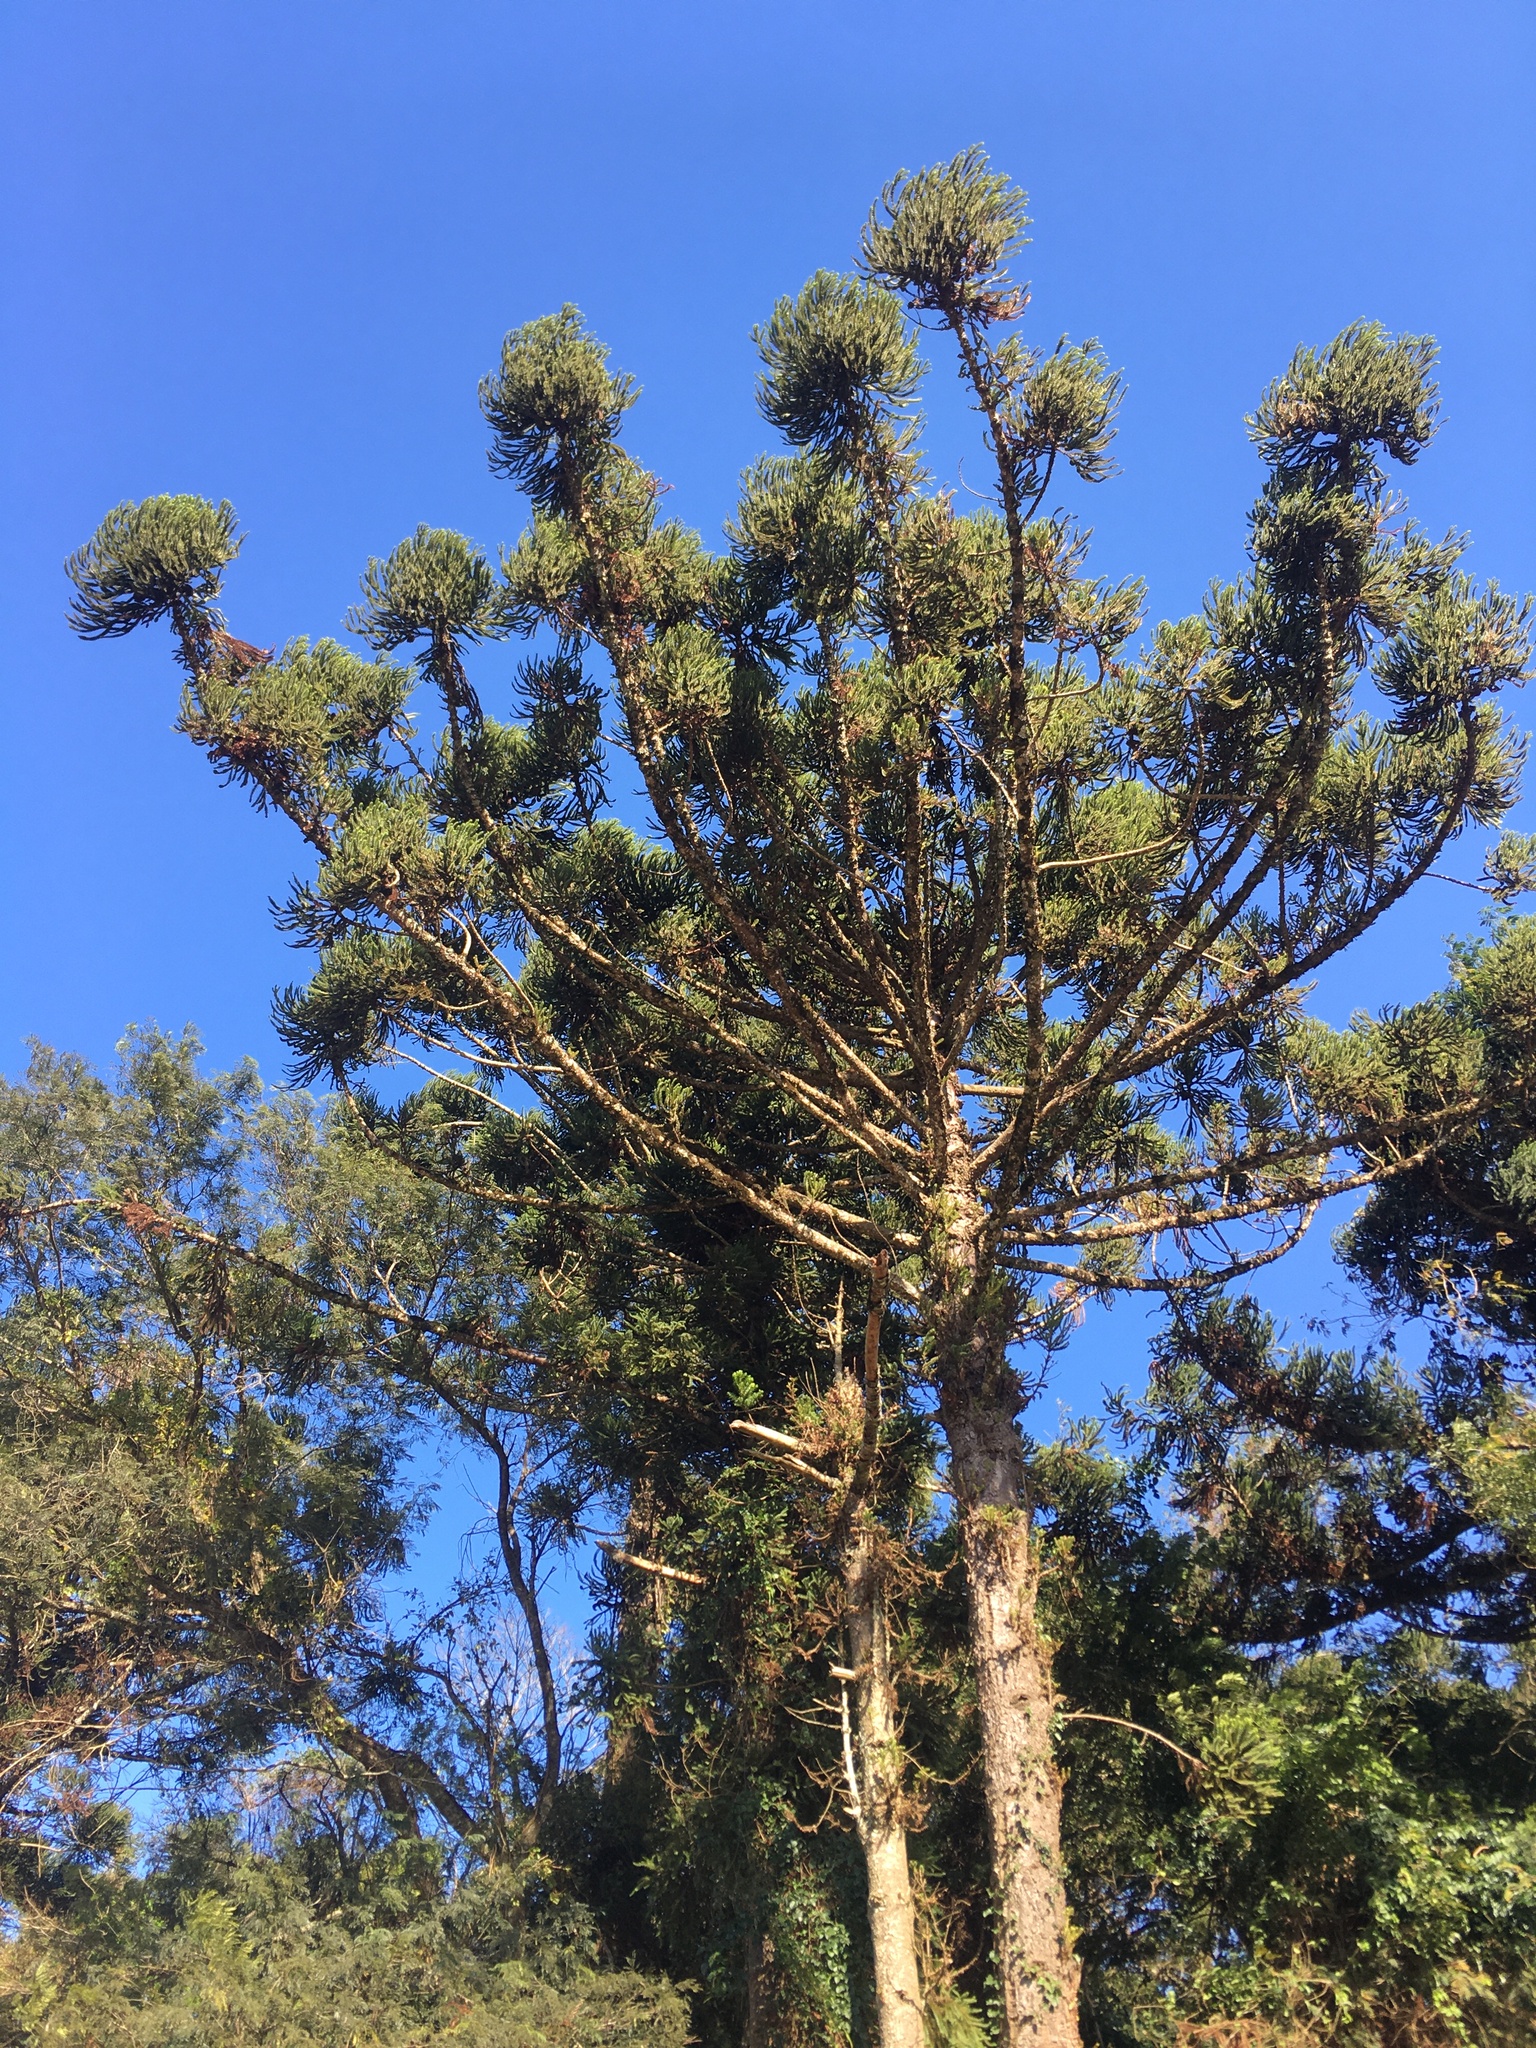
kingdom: Plantae
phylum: Tracheophyta
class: Pinopsida
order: Pinales
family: Araucariaceae
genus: Araucaria
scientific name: Araucaria angustifolia
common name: Candelabra tree
